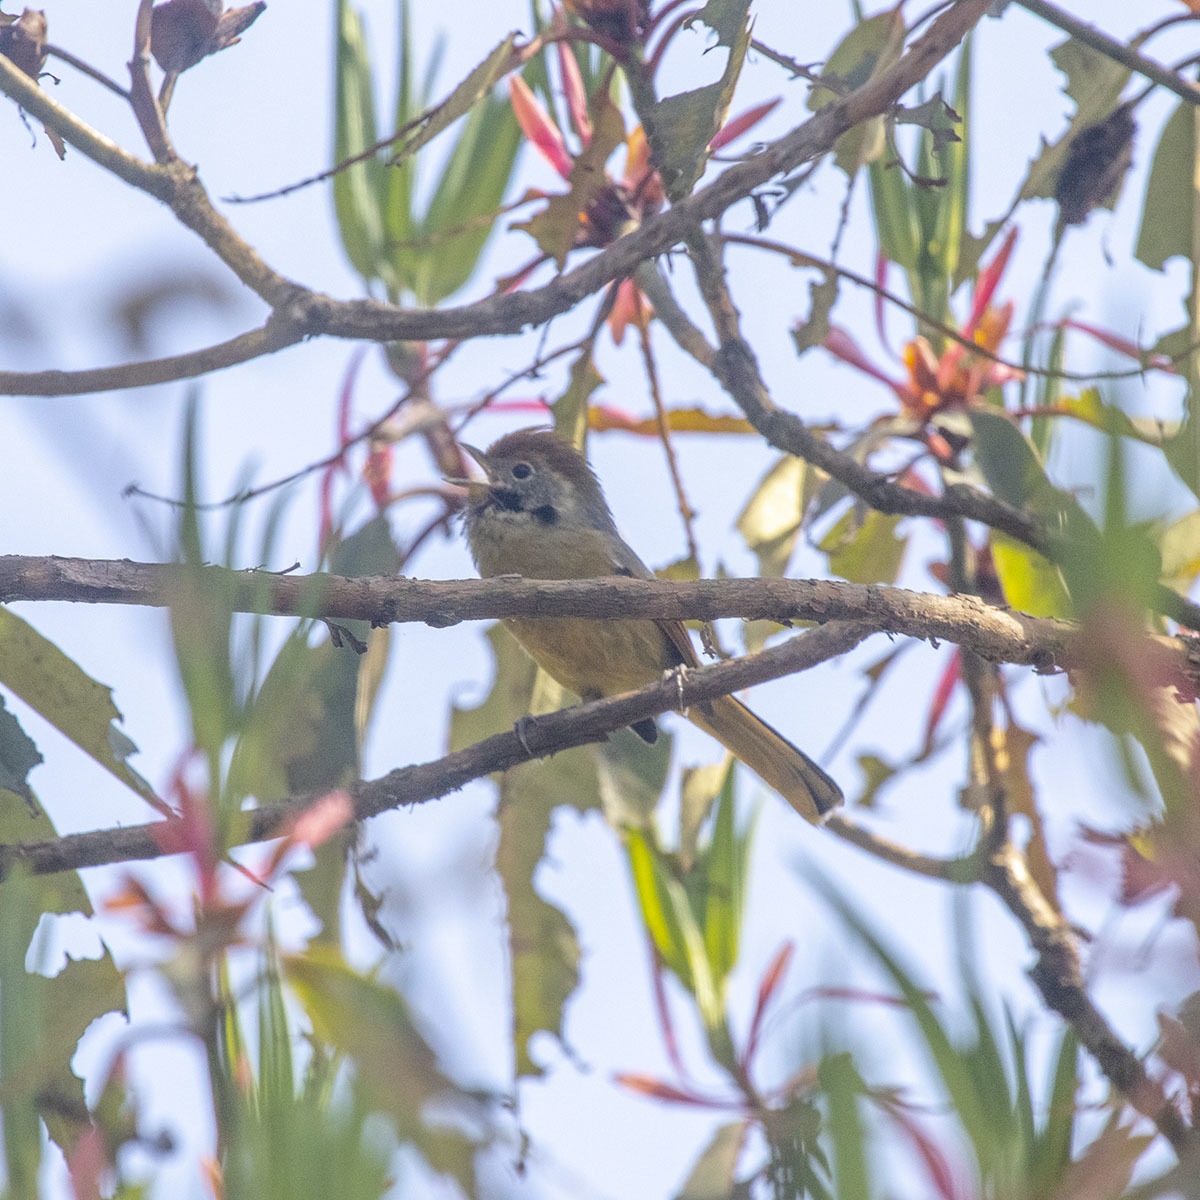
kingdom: Animalia
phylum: Chordata
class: Aves
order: Passeriformes
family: Leiothrichidae
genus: Minla
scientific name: Minla strigula
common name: Chestnut-tailed minla
